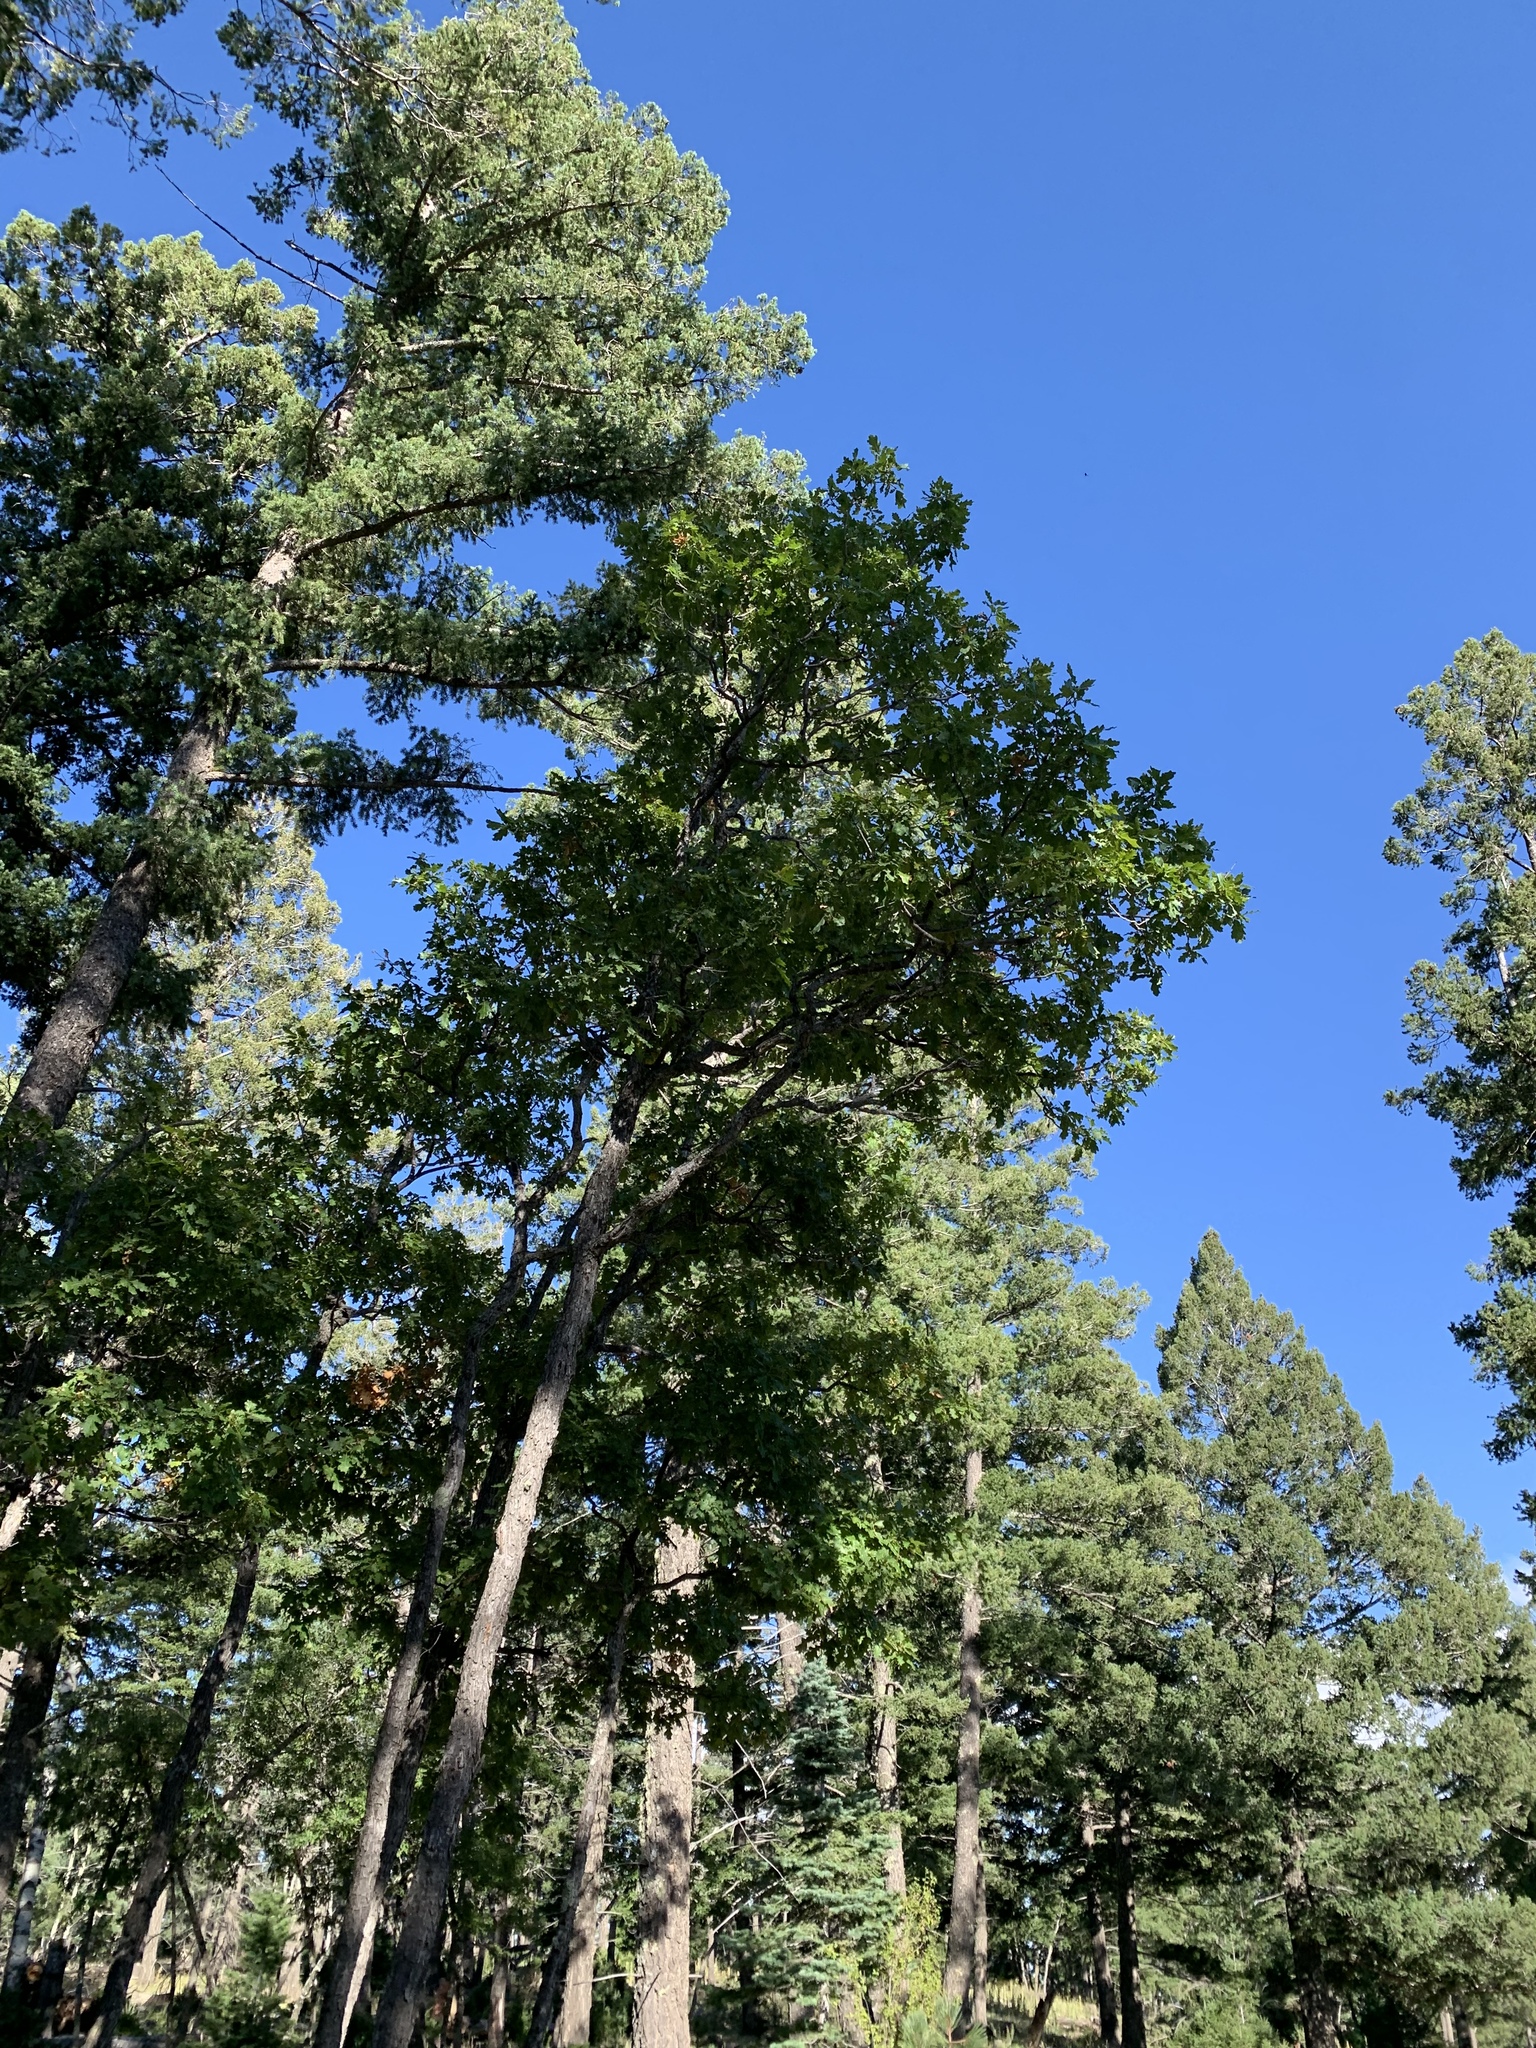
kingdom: Plantae
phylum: Tracheophyta
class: Magnoliopsida
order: Fagales
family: Fagaceae
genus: Quercus
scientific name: Quercus gambelii
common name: Gambel oak
